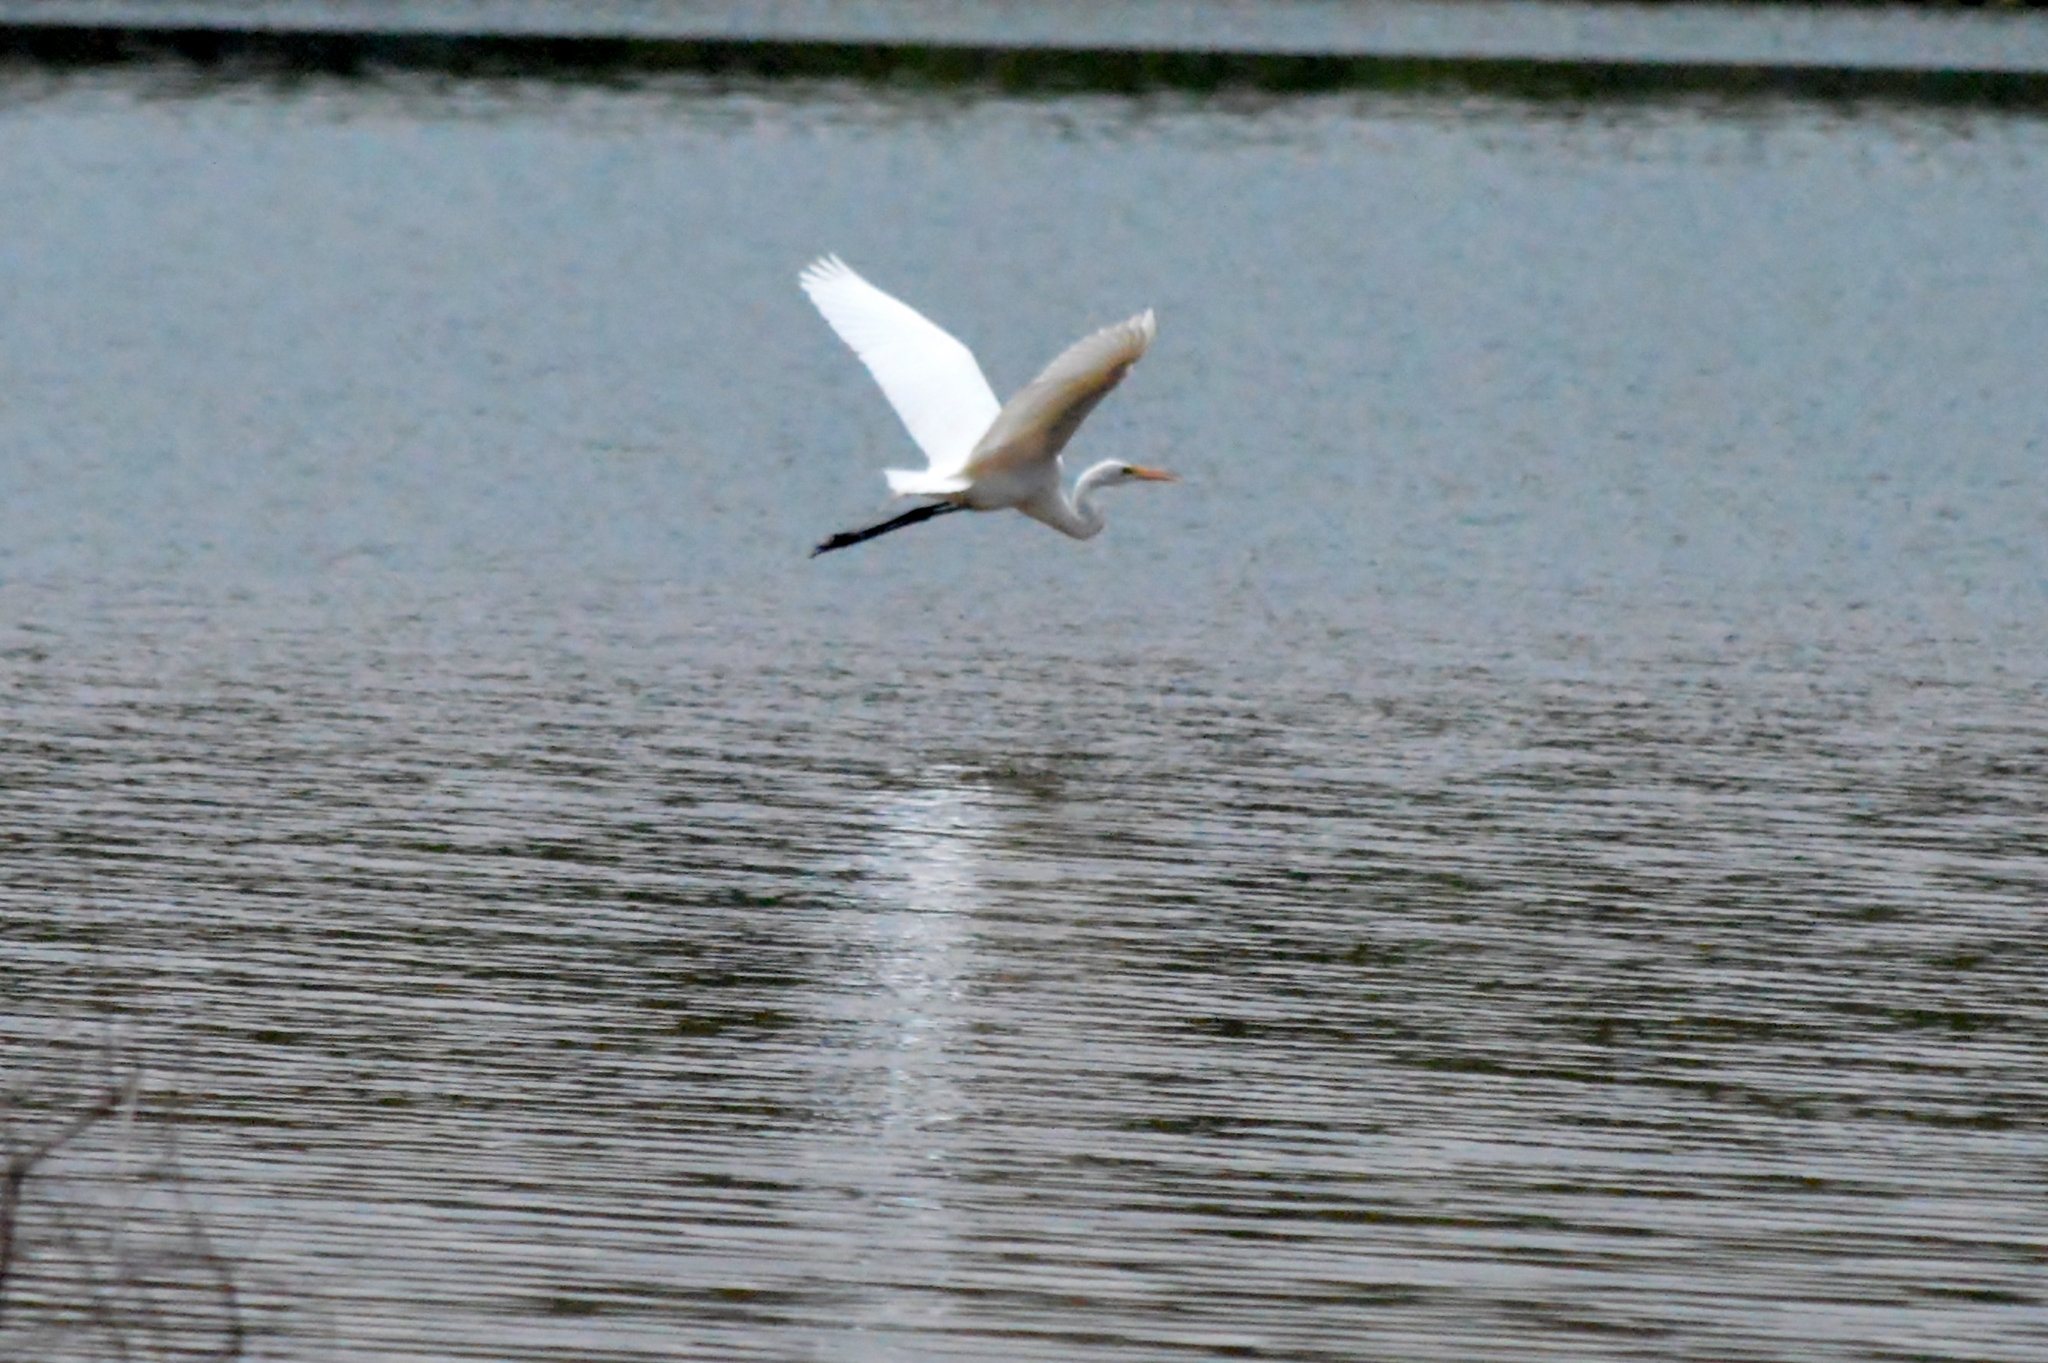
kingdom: Animalia
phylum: Chordata
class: Aves
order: Pelecaniformes
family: Ardeidae
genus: Ardea
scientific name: Ardea alba
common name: Great egret
